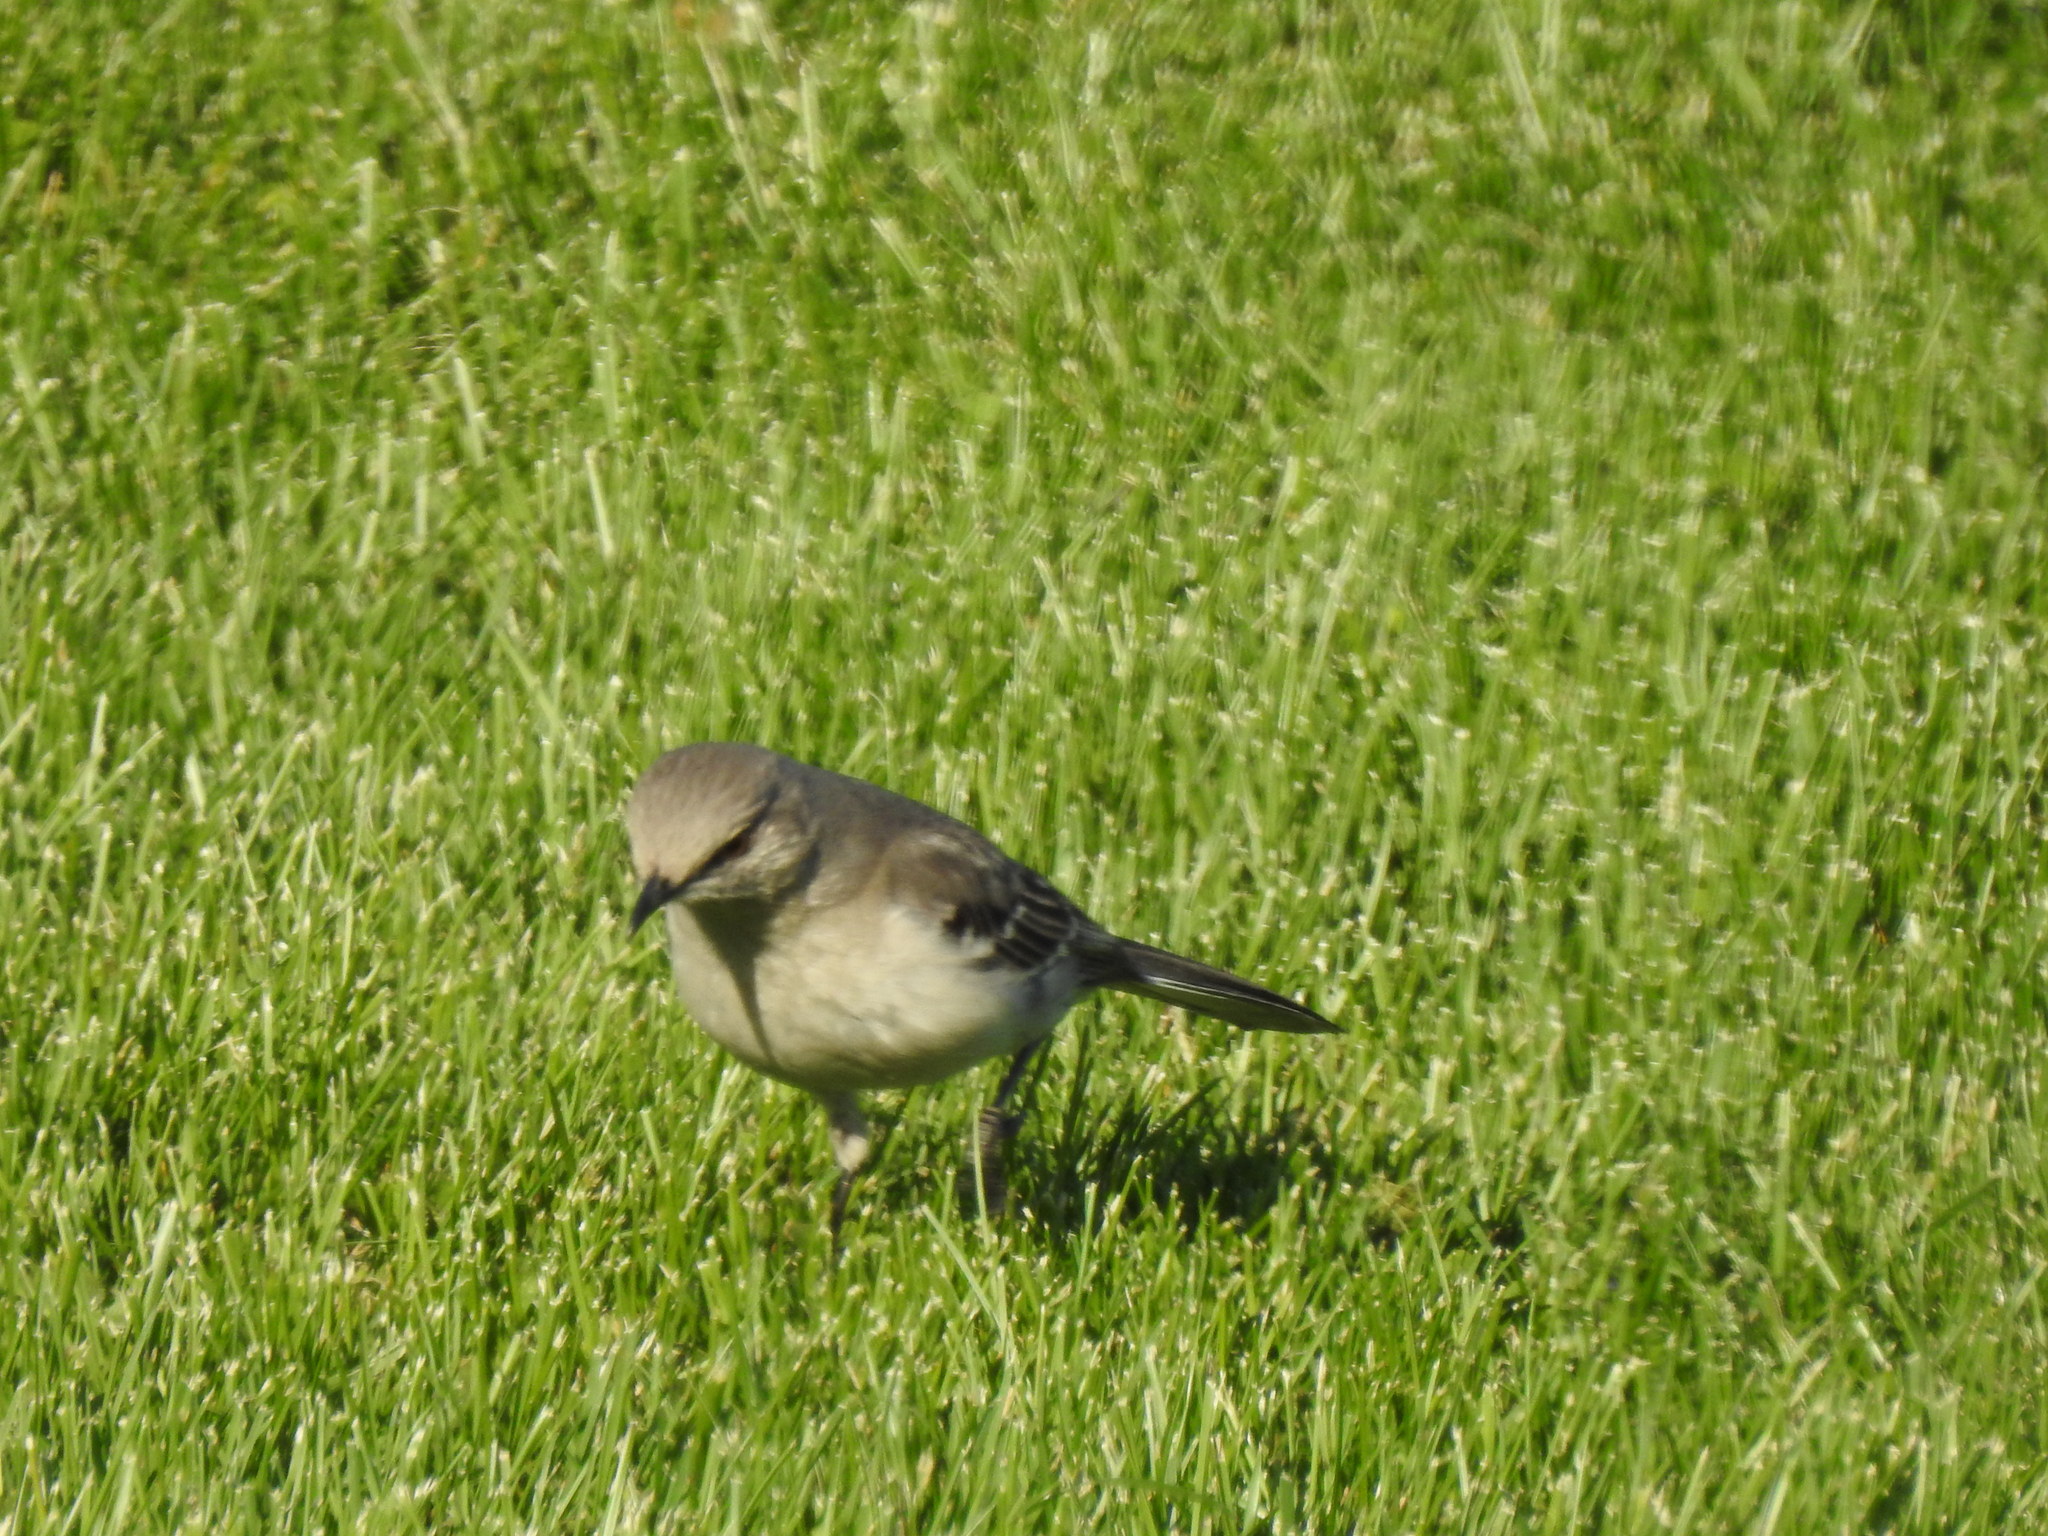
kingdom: Animalia
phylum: Chordata
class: Aves
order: Passeriformes
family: Mimidae
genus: Mimus
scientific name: Mimus polyglottos
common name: Northern mockingbird
